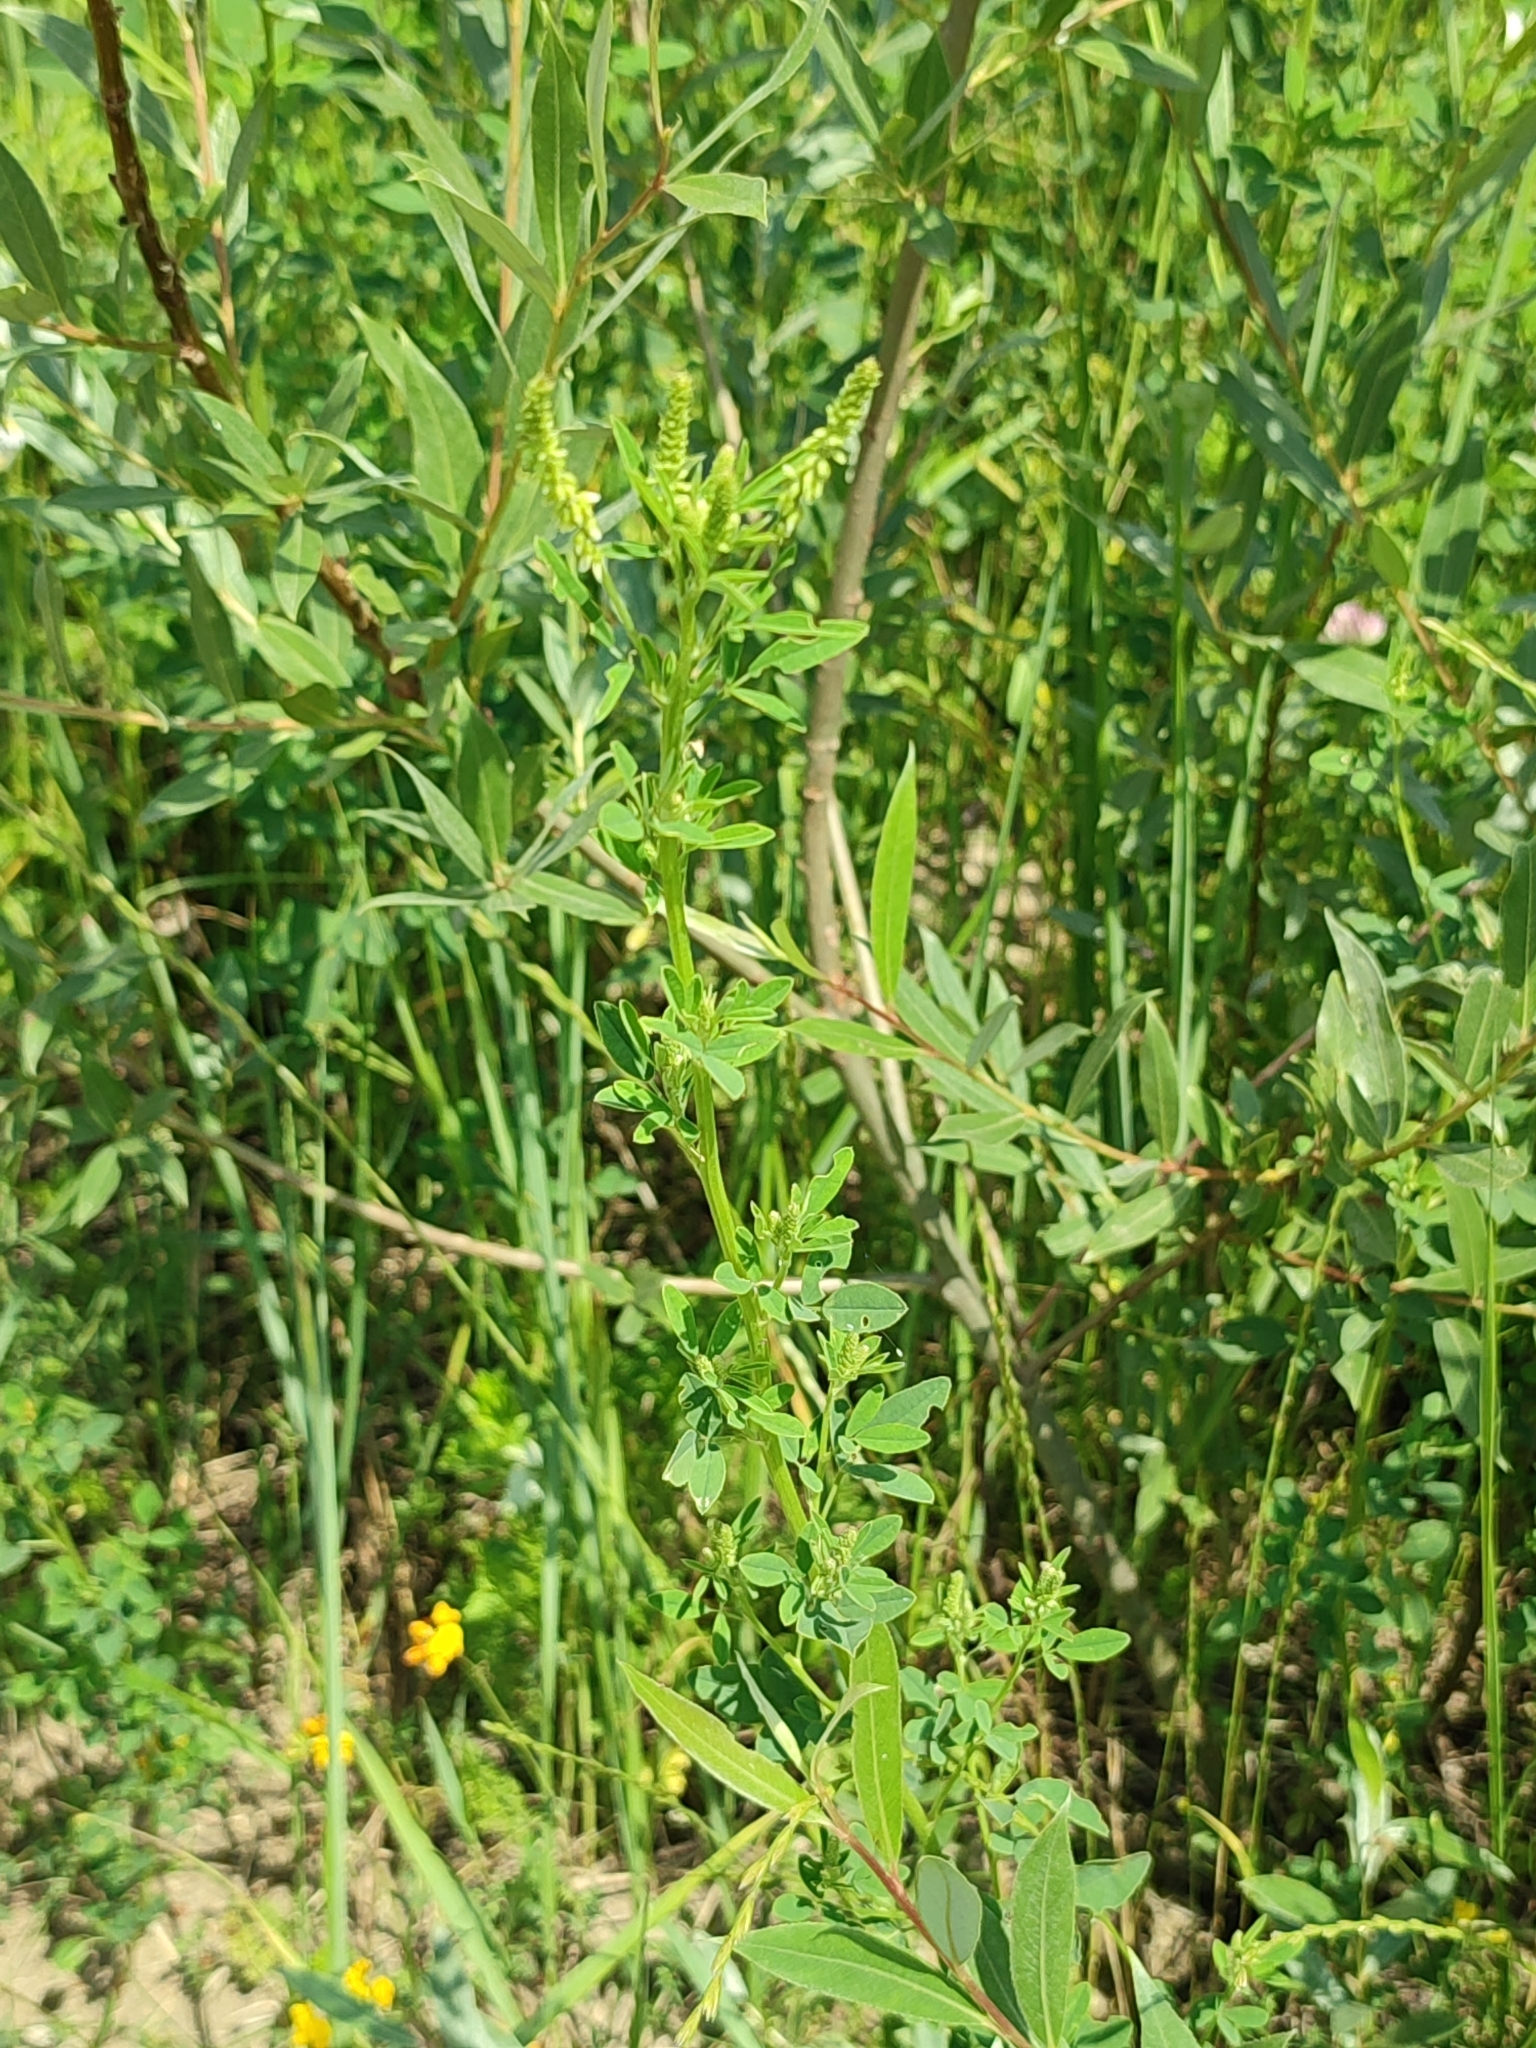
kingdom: Plantae
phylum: Tracheophyta
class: Magnoliopsida
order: Fabales
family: Fabaceae
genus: Melilotus
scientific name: Melilotus officinalis
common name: Sweetclover
